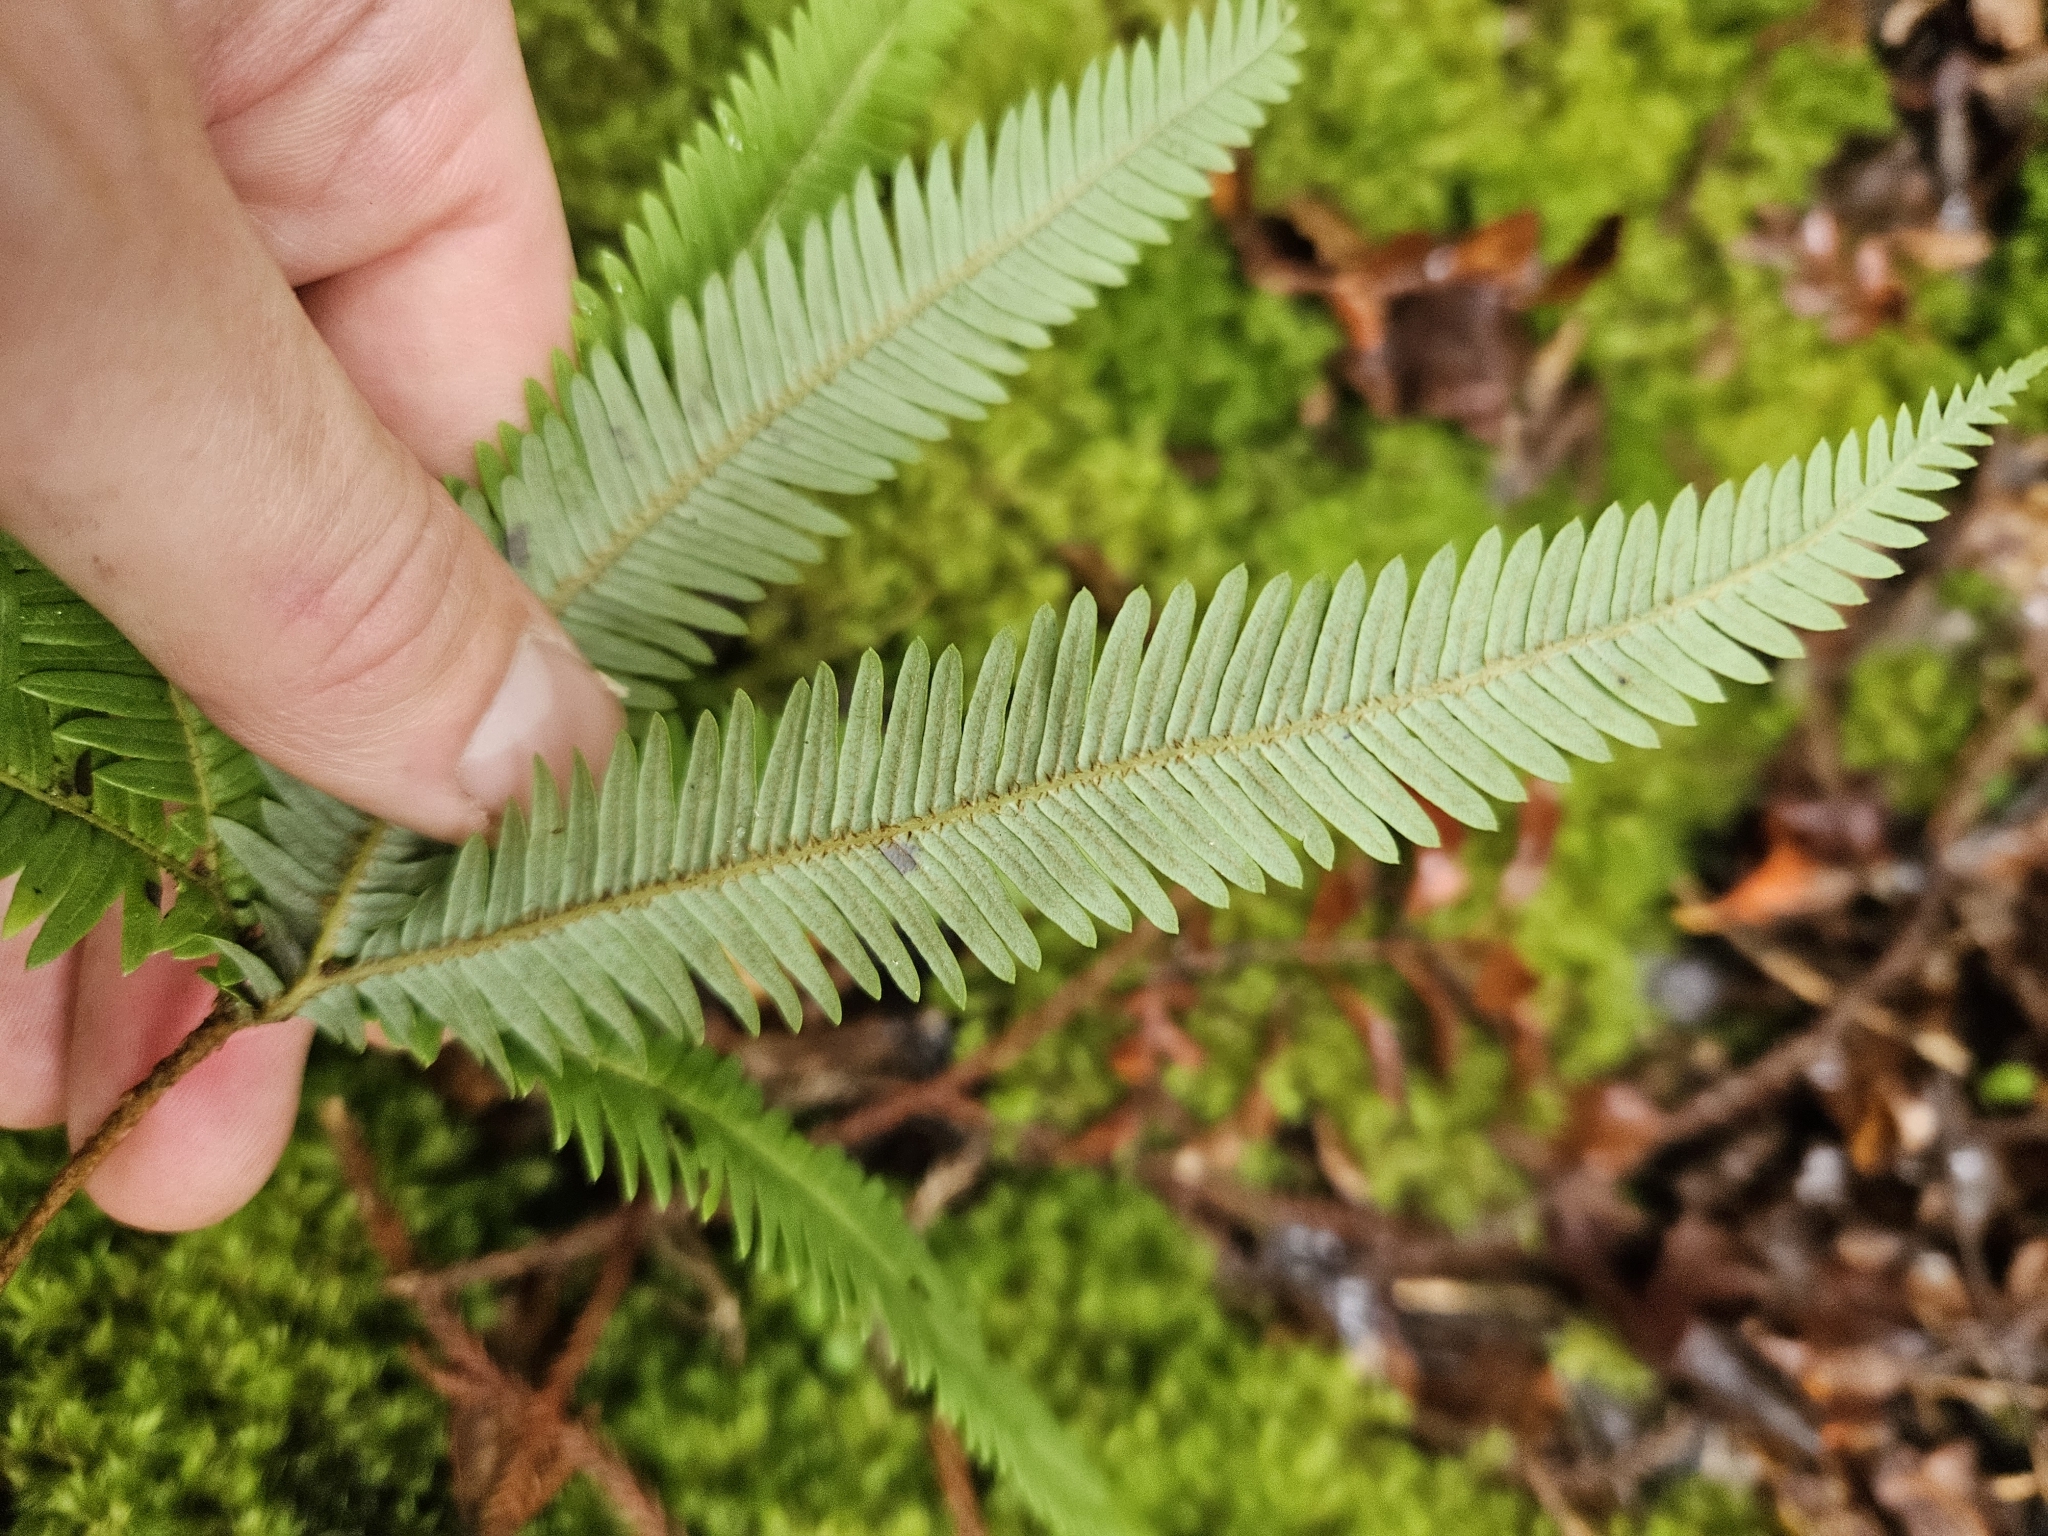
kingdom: Plantae
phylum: Tracheophyta
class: Polypodiopsida
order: Gleicheniales
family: Gleicheniaceae
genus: Sticherus
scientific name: Sticherus cunninghamii
